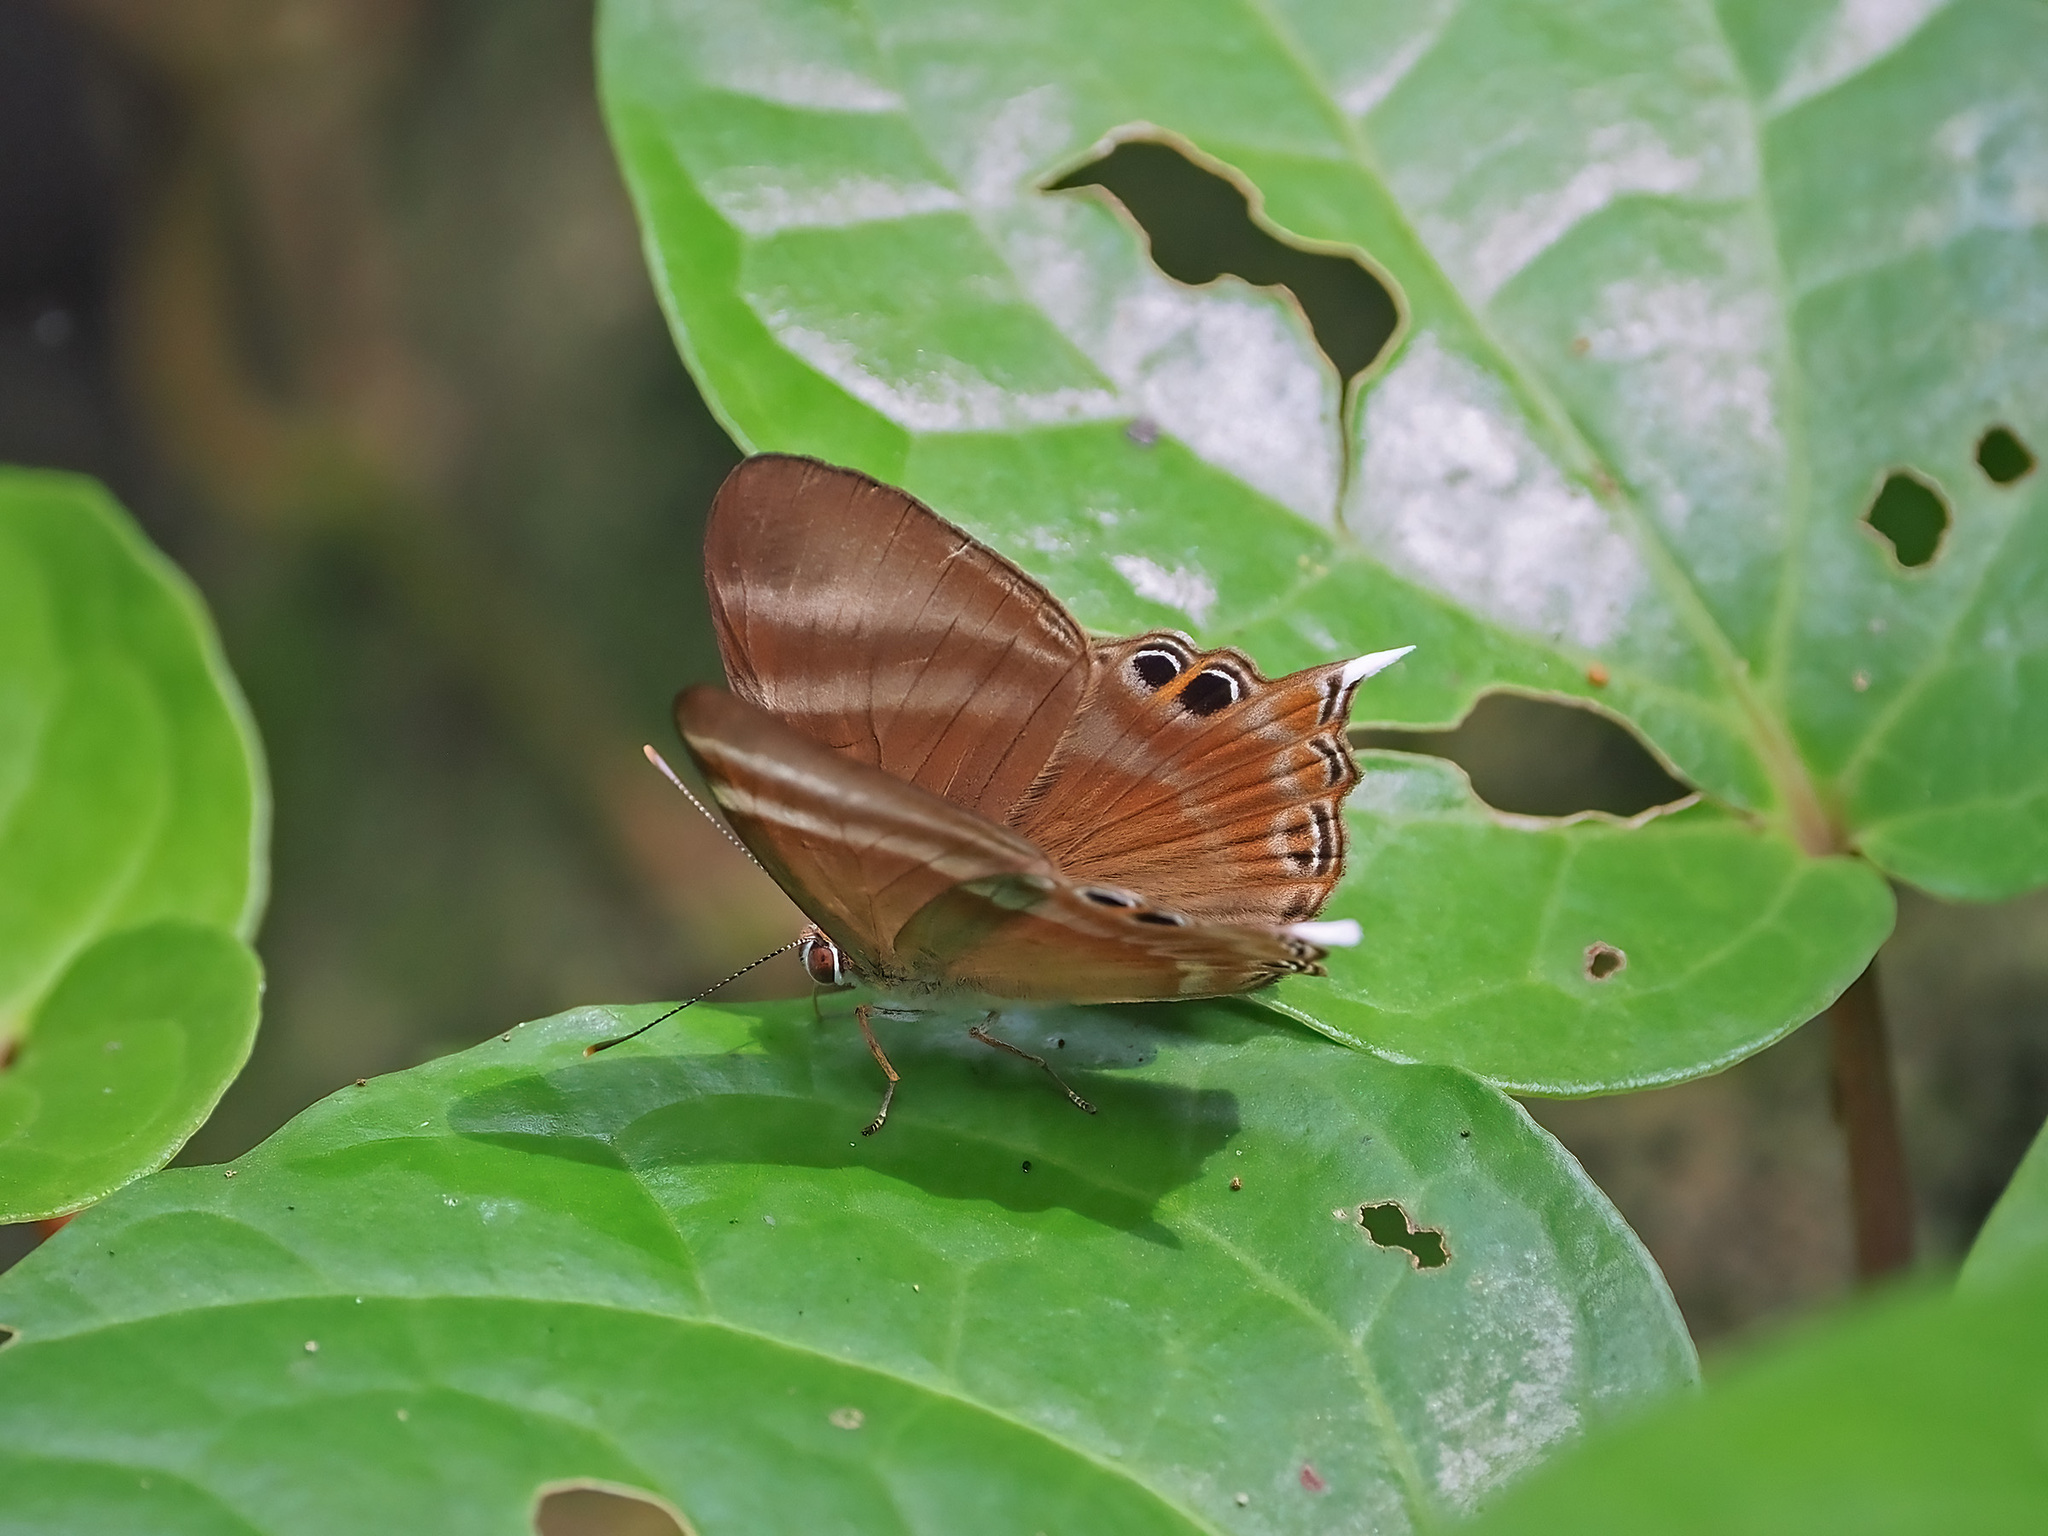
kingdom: Animalia
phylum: Arthropoda
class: Insecta
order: Lepidoptera
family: Lycaenidae
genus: Abisara
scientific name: Abisara savitri
